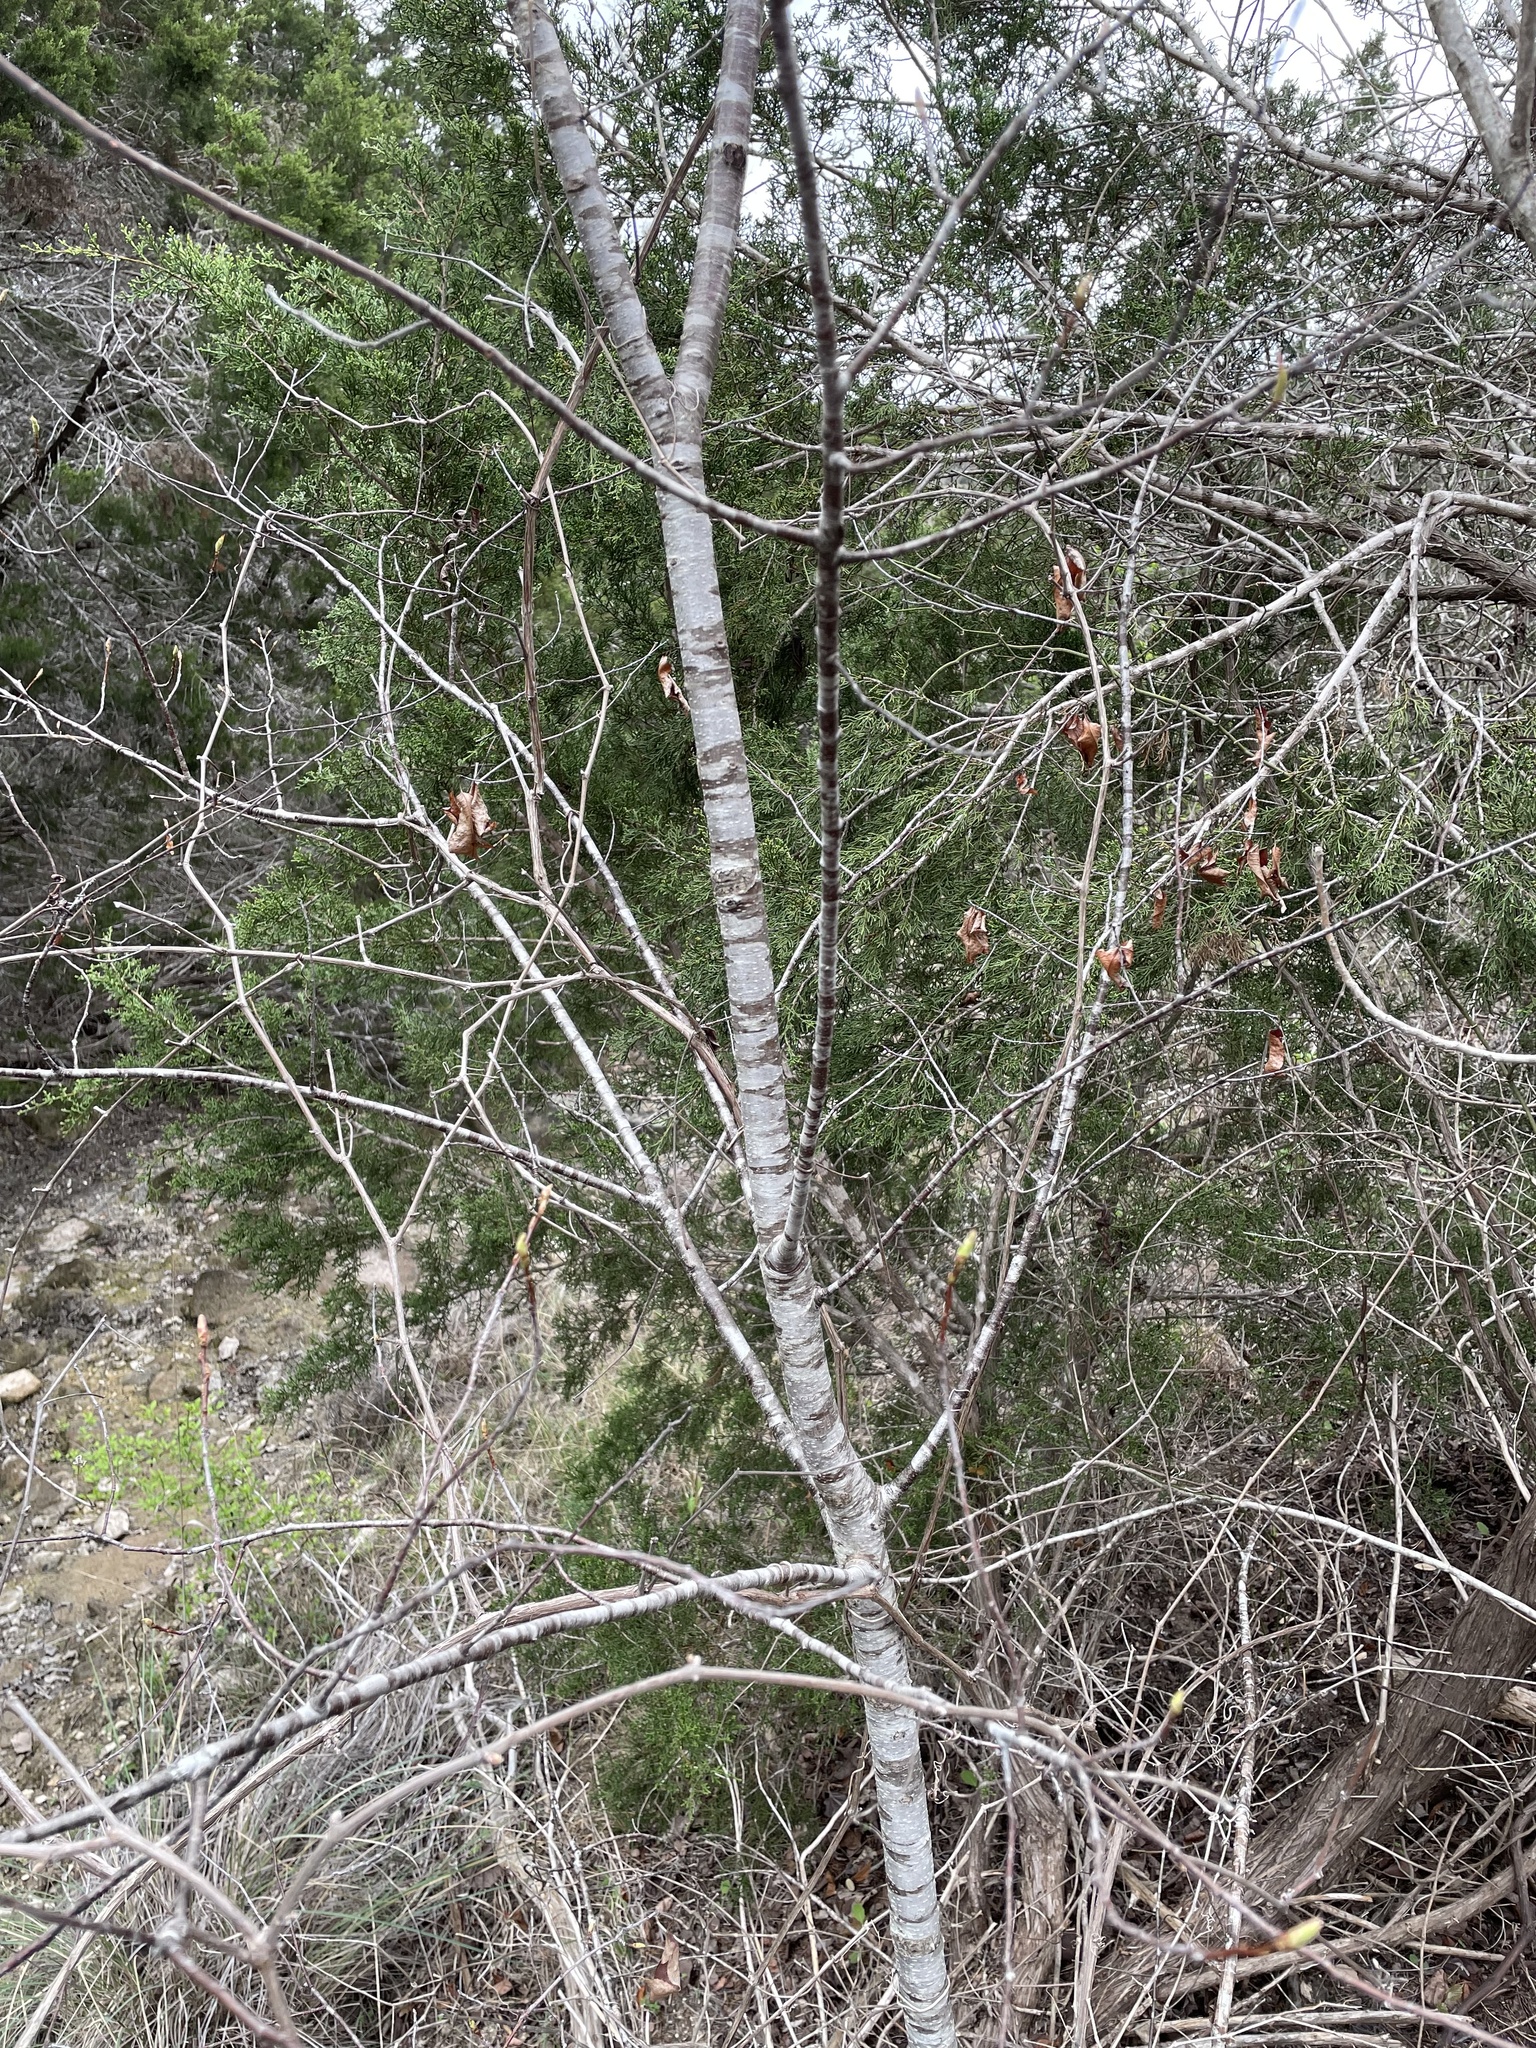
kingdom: Plantae
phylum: Tracheophyta
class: Magnoliopsida
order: Rosales
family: Rosaceae
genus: Prunus
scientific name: Prunus serotina
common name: Black cherry
